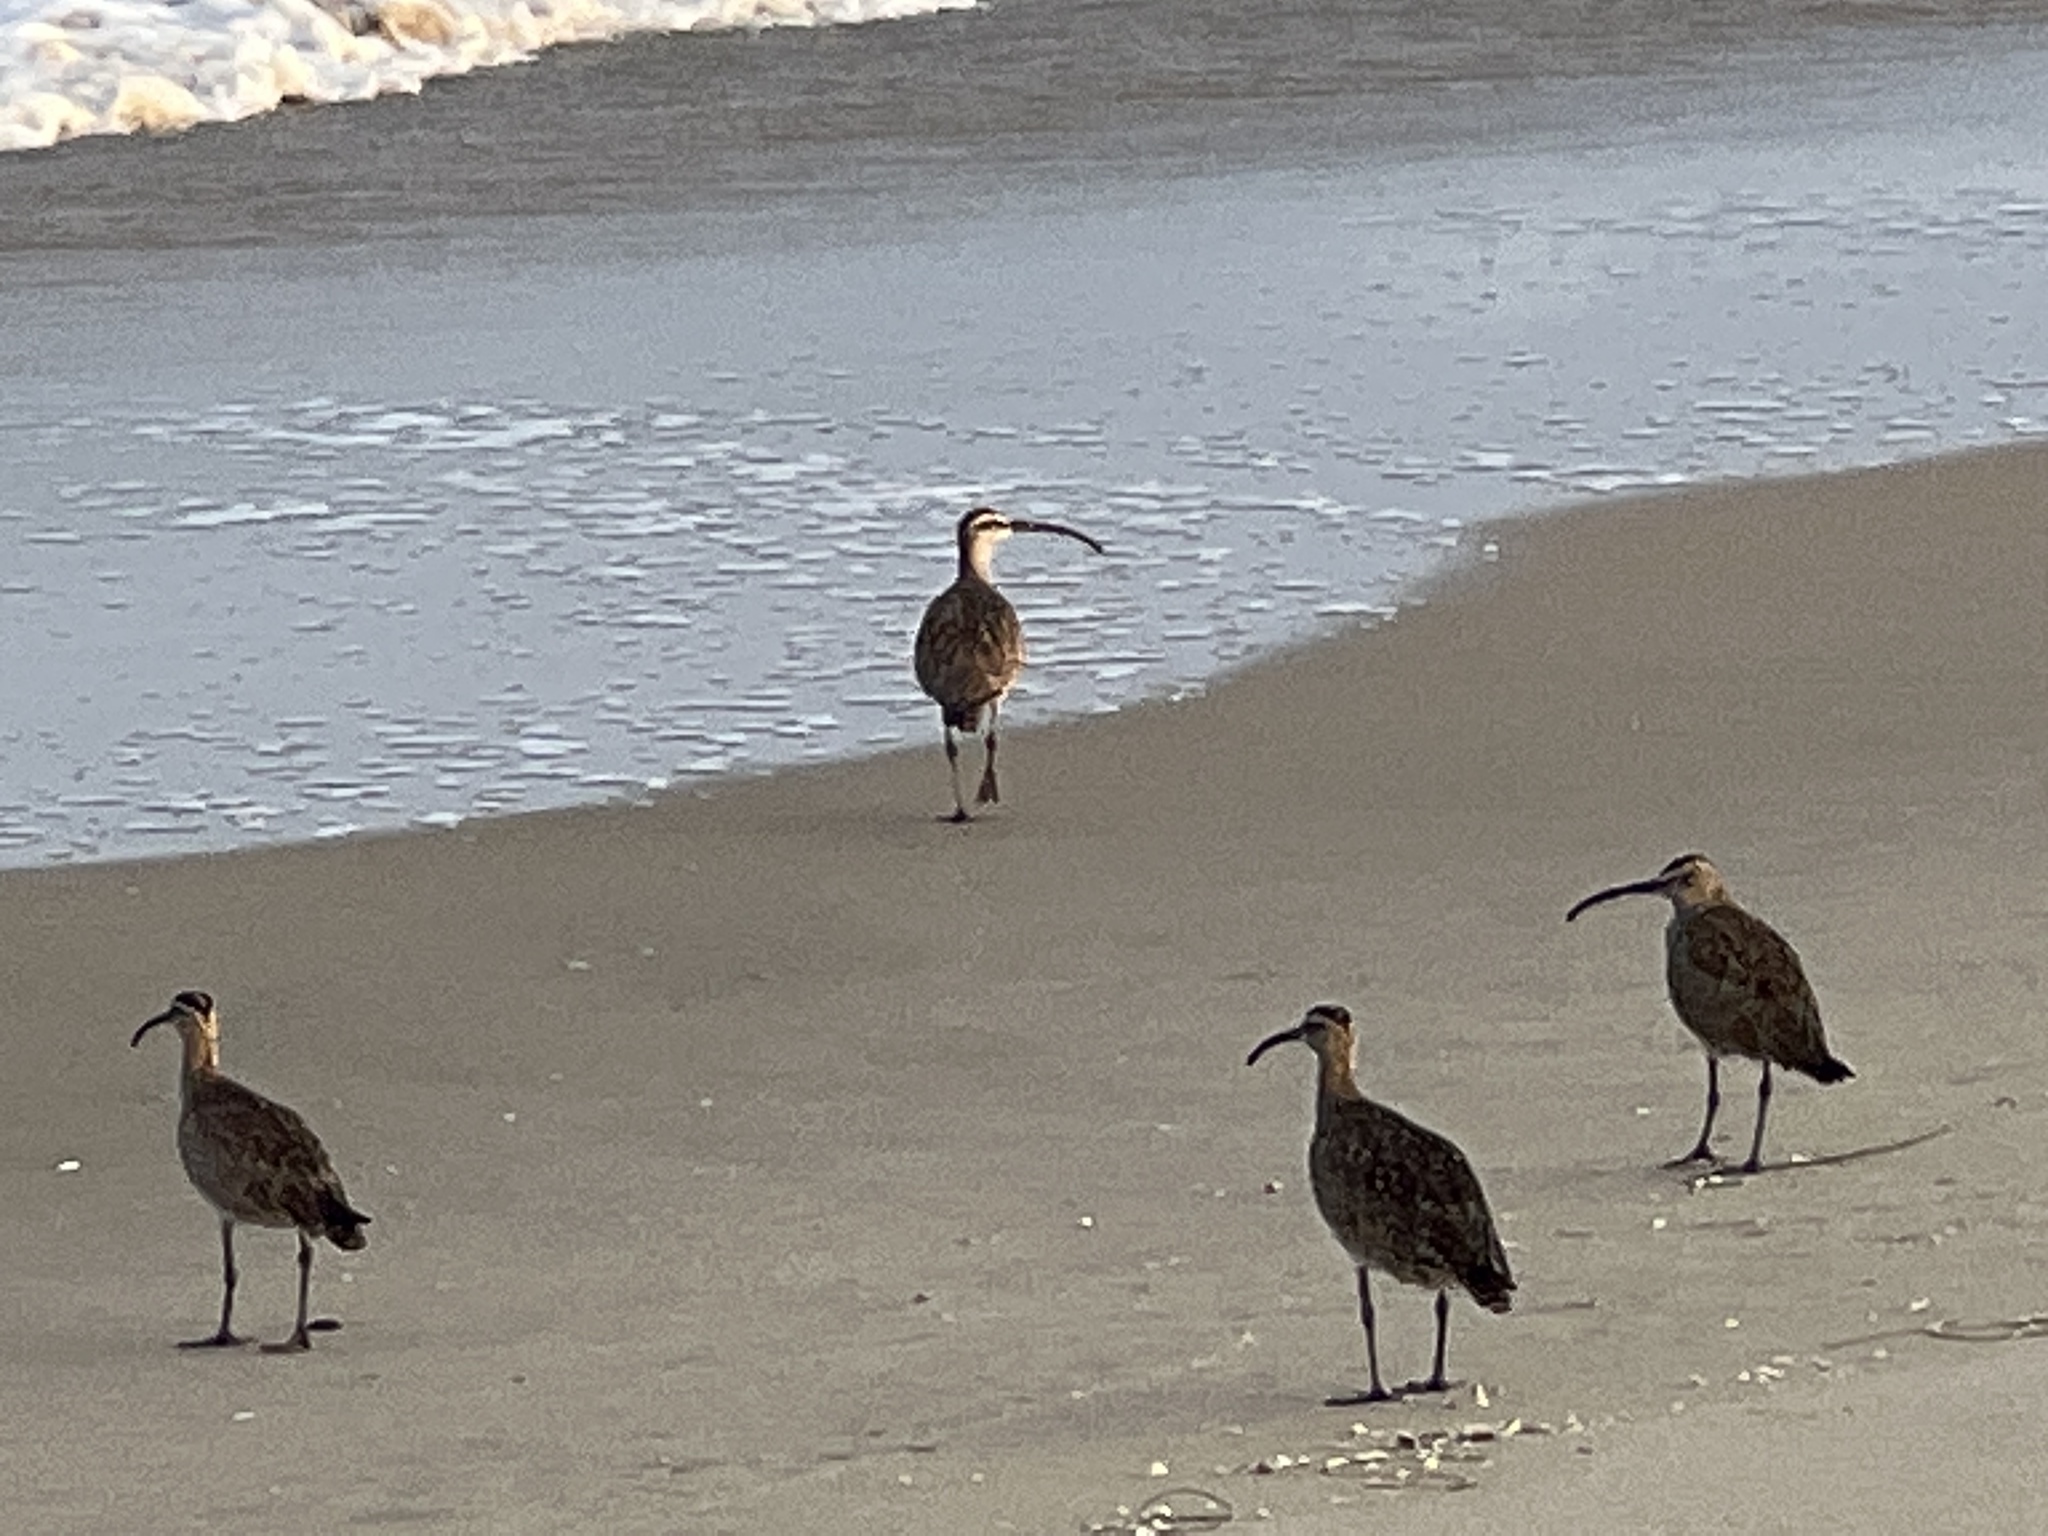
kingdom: Animalia
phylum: Chordata
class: Aves
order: Charadriiformes
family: Scolopacidae
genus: Numenius
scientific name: Numenius phaeopus
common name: Whimbrel
